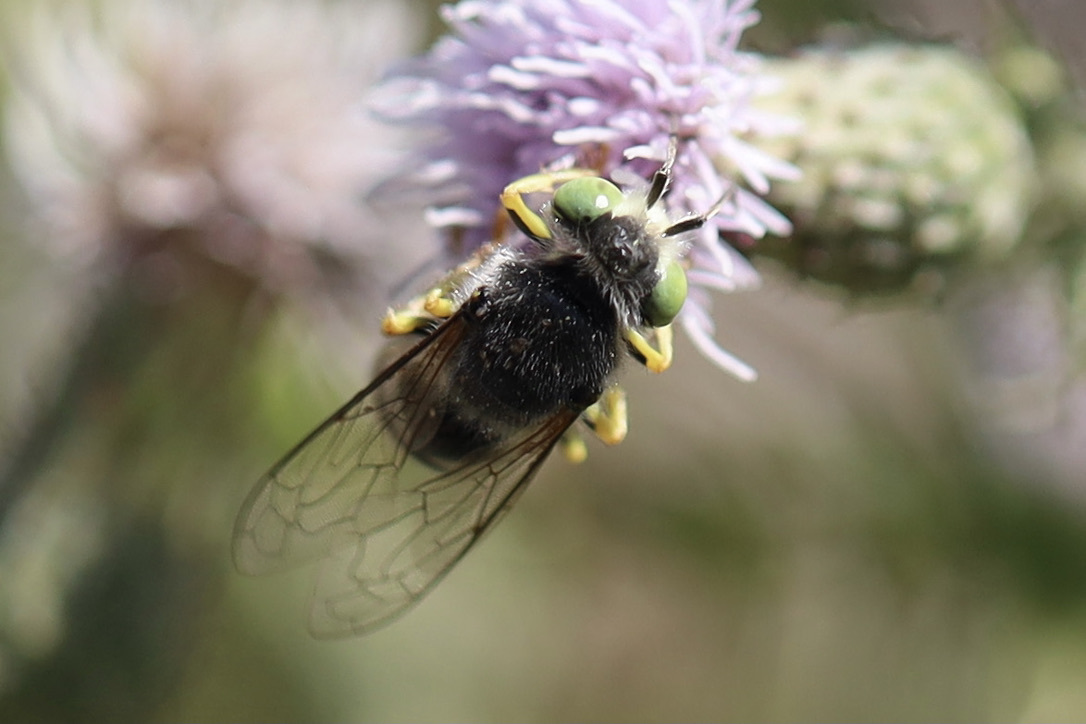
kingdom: Animalia
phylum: Arthropoda
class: Insecta
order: Hymenoptera
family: Crabronidae
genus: Bembix
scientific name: Bembix americana
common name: American sand wasp
